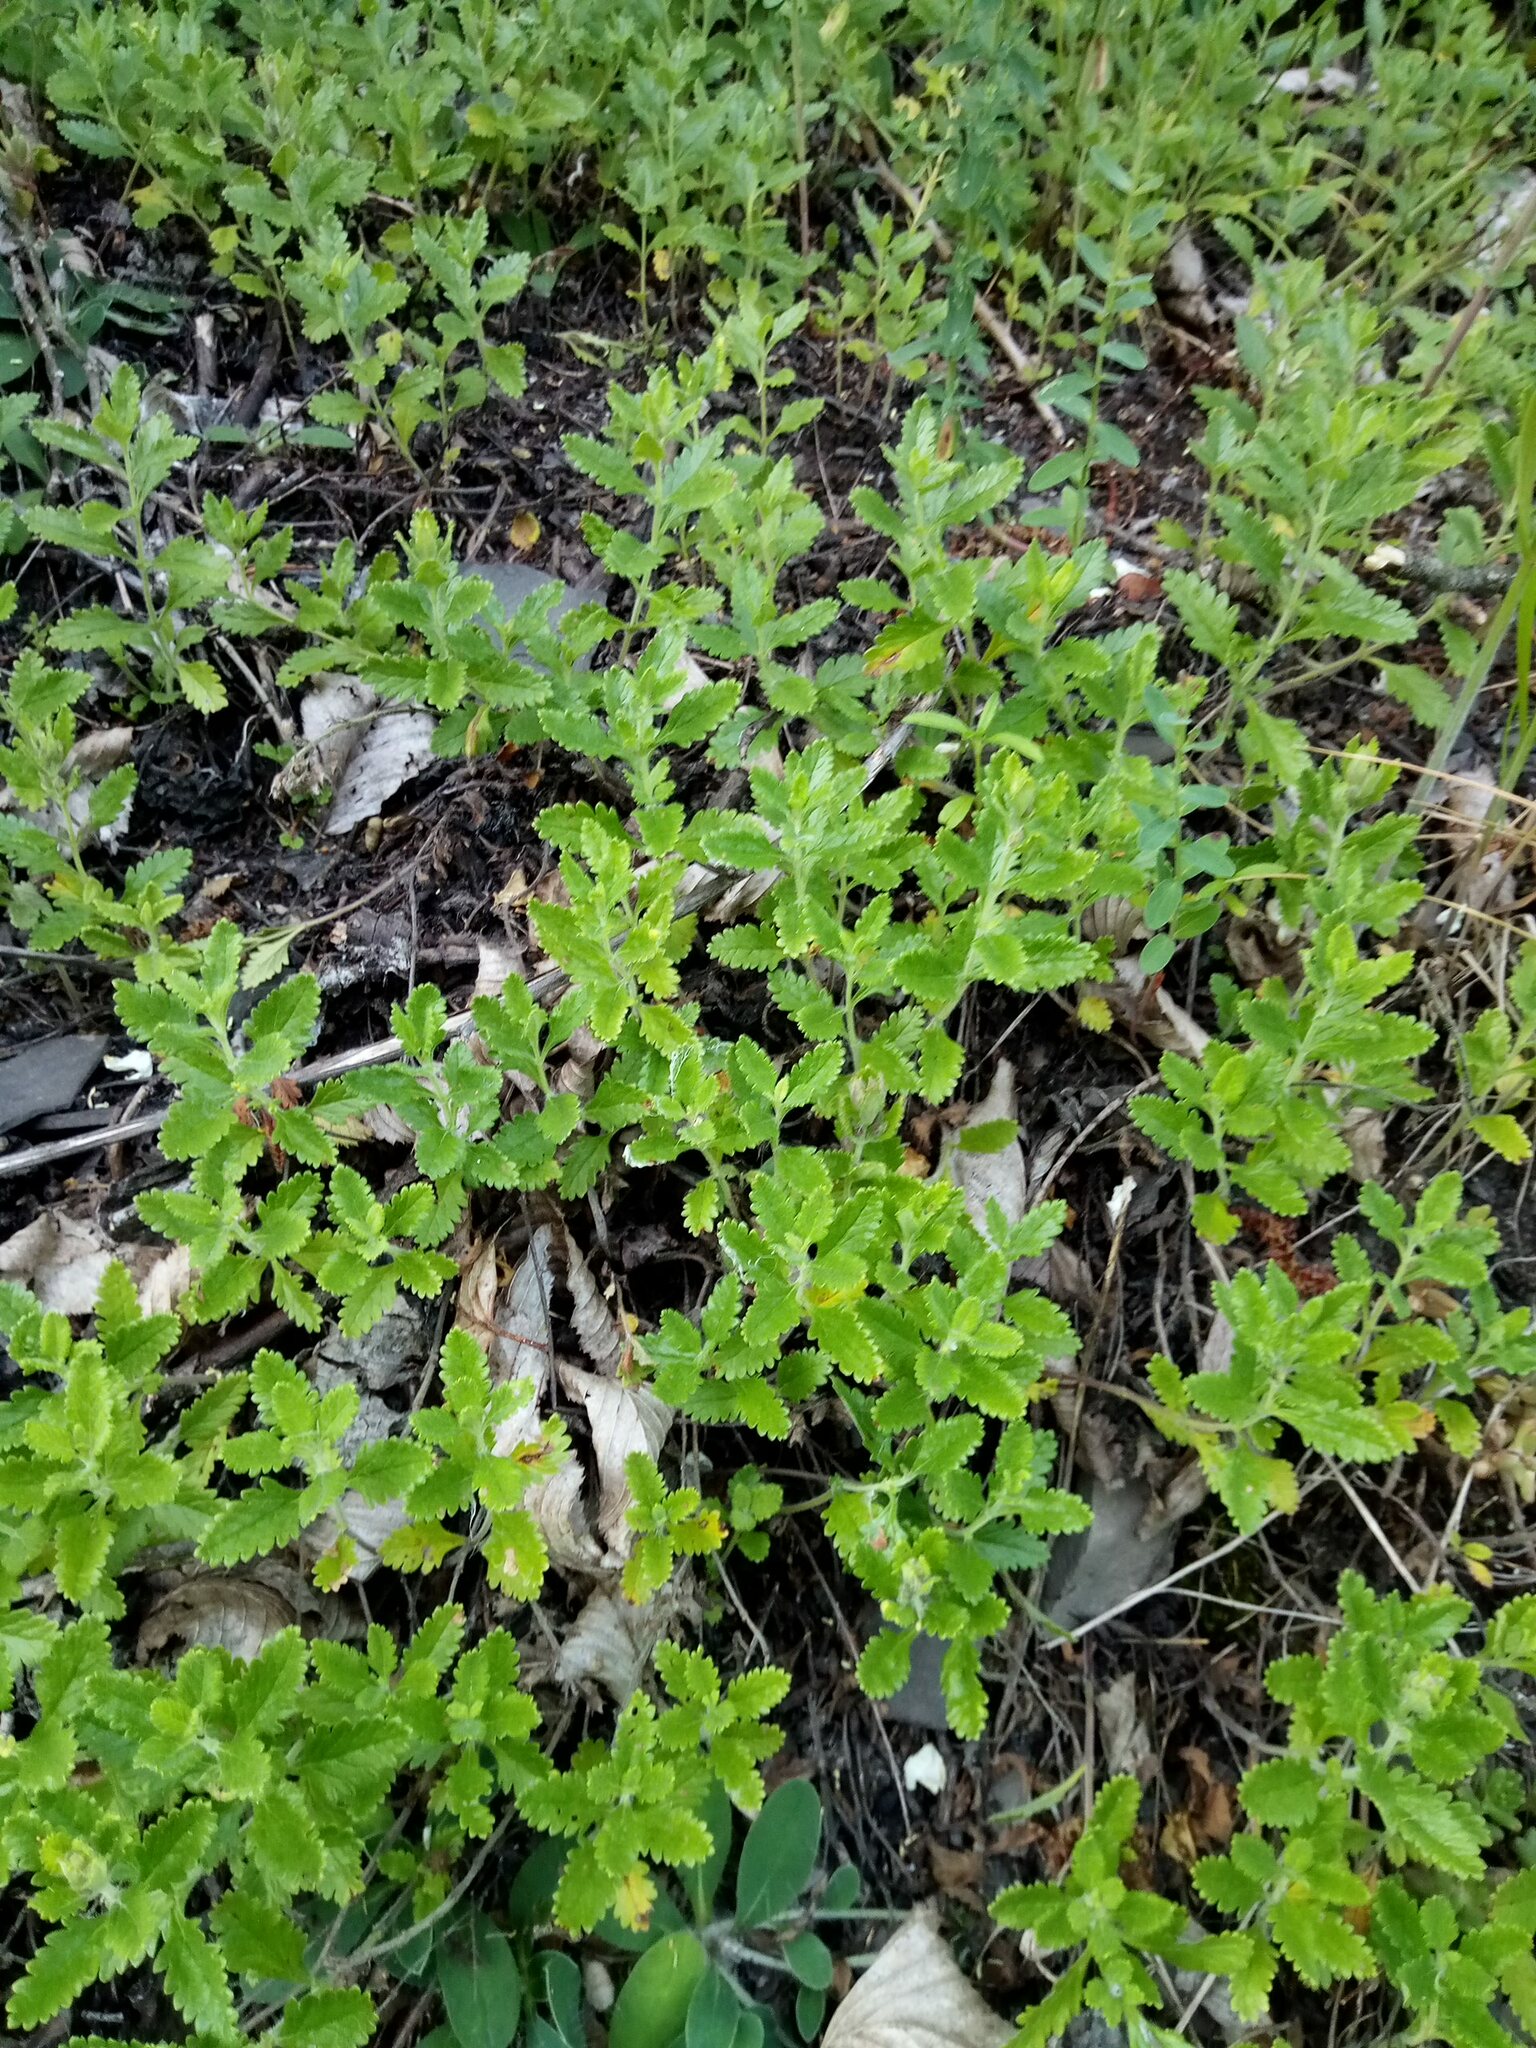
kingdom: Plantae
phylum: Tracheophyta
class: Magnoliopsida
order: Lamiales
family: Lamiaceae
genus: Teucrium
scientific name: Teucrium chamaedrys
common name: Wall germander
